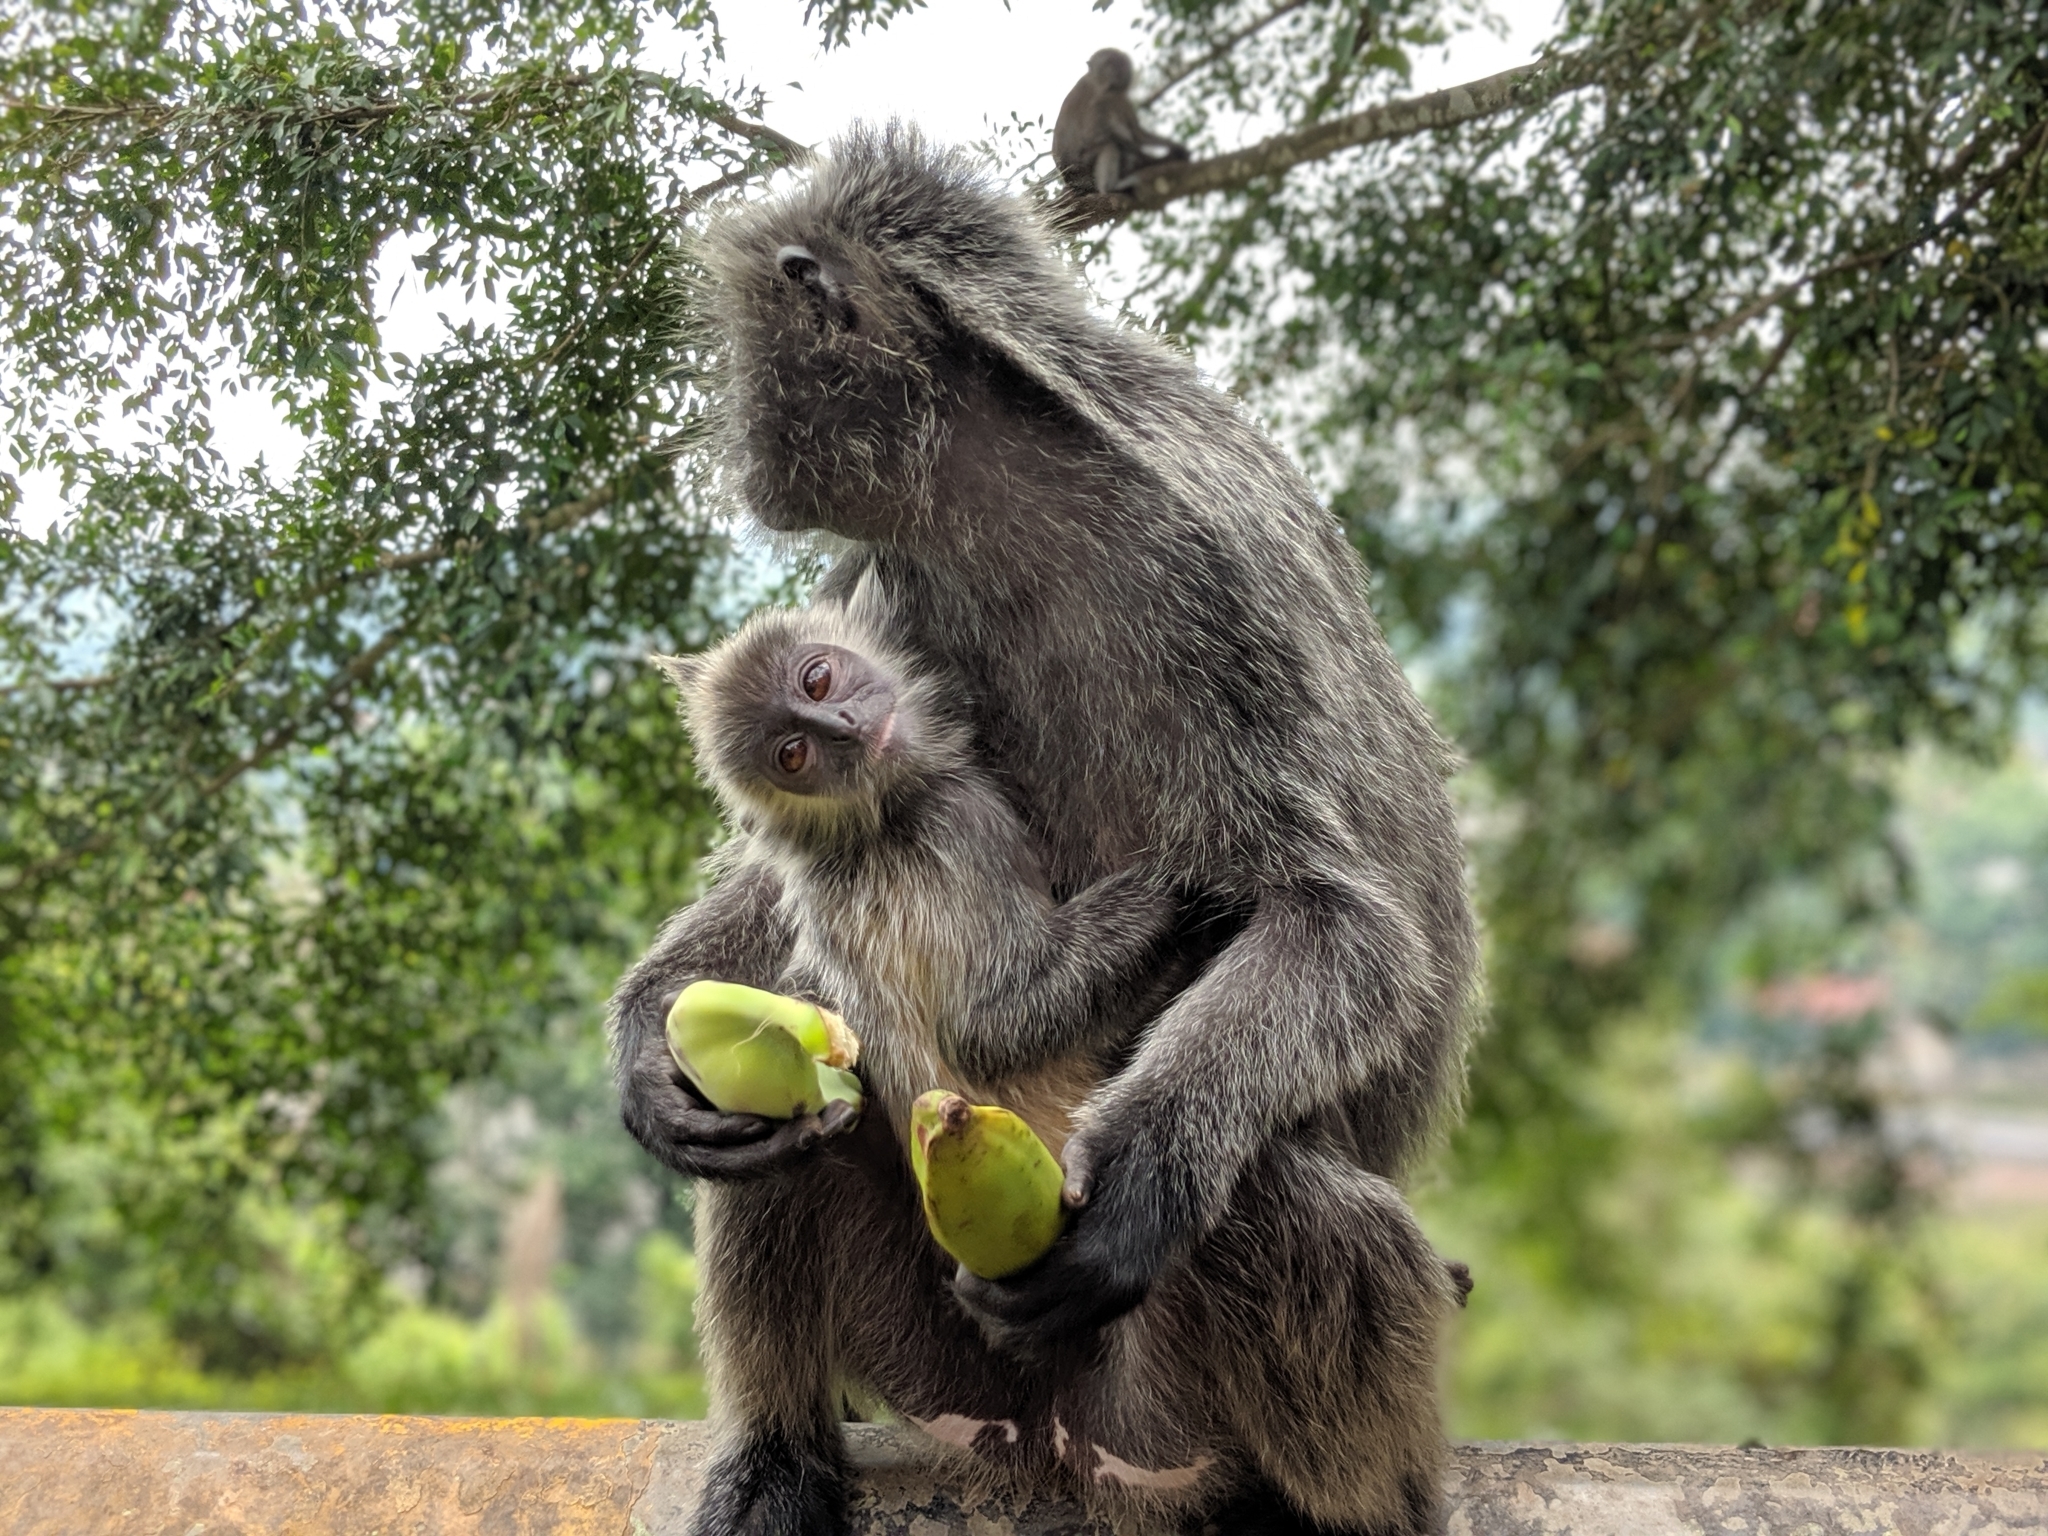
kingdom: Animalia
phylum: Chordata
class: Mammalia
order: Primates
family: Cercopithecidae
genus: Trachypithecus
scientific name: Trachypithecus selangorensis
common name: Selangor silvery langur
